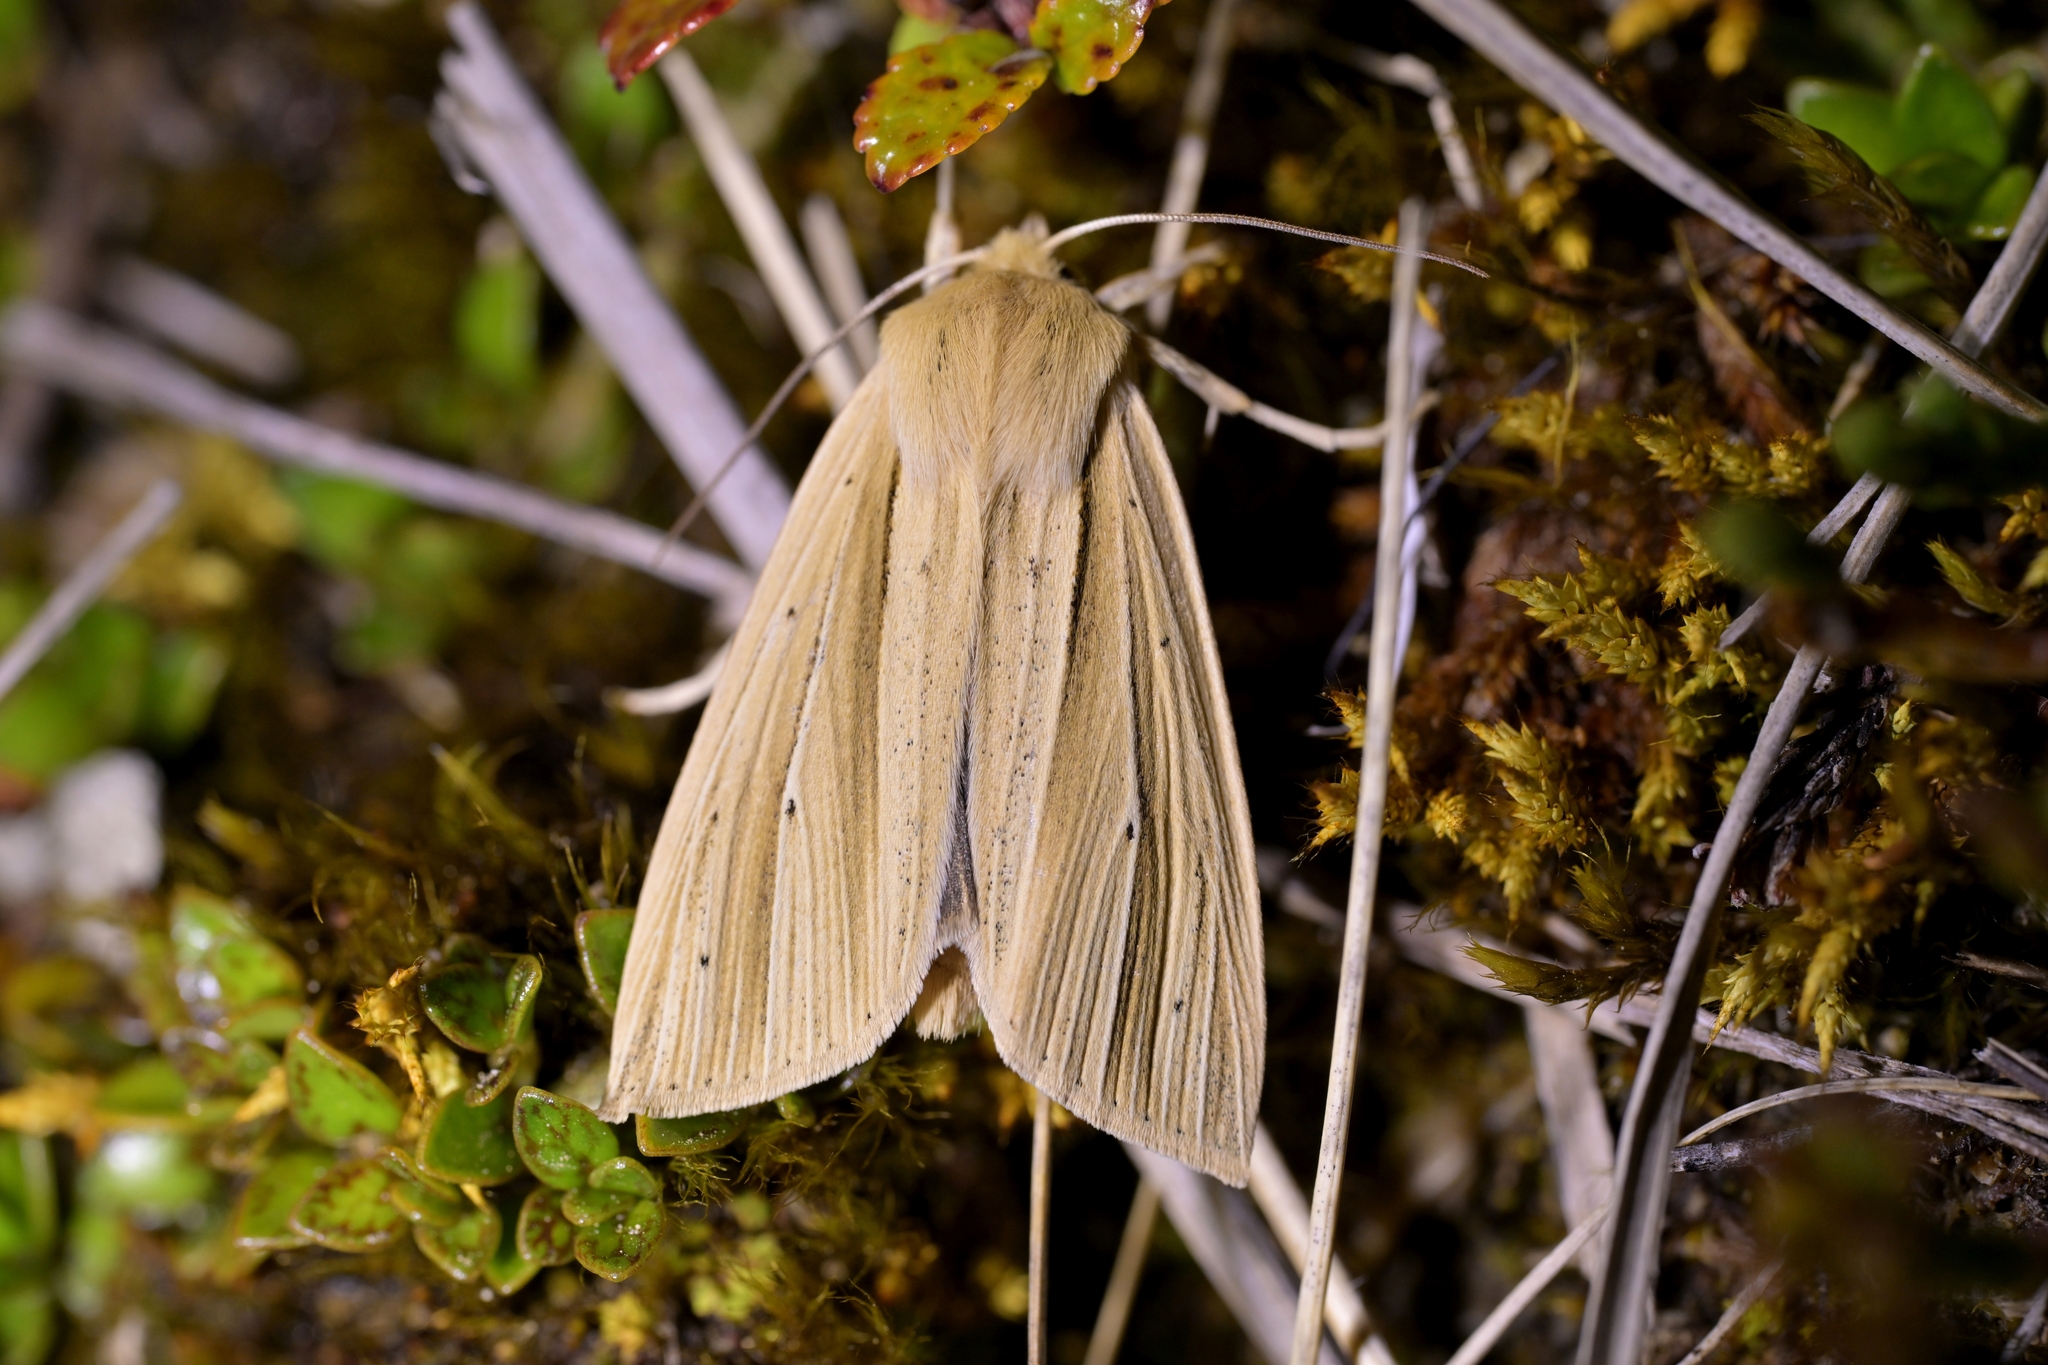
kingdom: Animalia
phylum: Arthropoda
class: Insecta
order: Lepidoptera
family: Noctuidae
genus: Ichneutica
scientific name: Ichneutica sulcana
